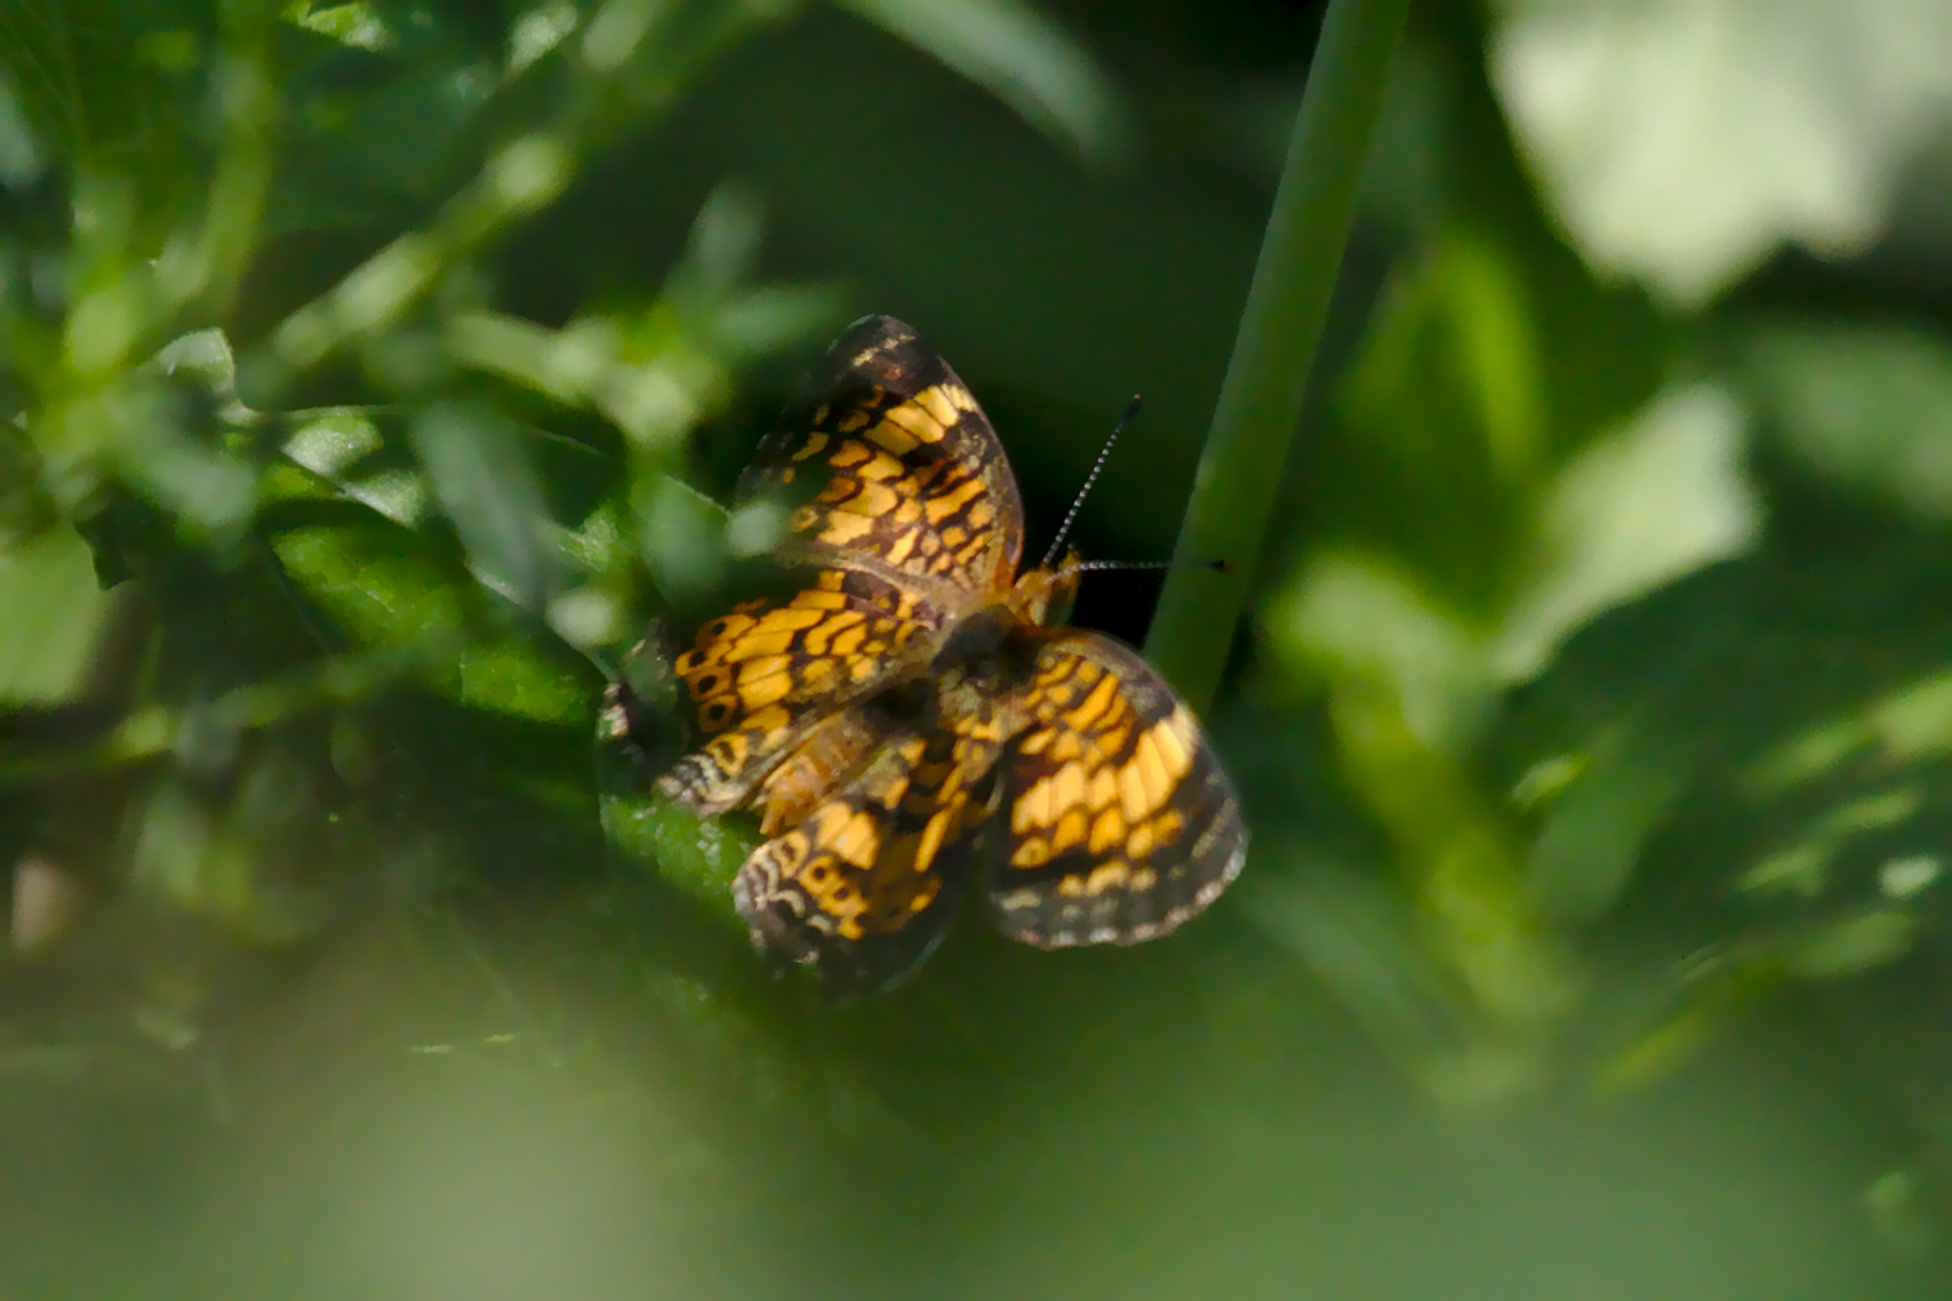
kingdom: Animalia
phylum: Arthropoda
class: Insecta
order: Lepidoptera
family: Nymphalidae
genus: Phyciodes
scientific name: Phyciodes tharos
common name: Pearl crescent
